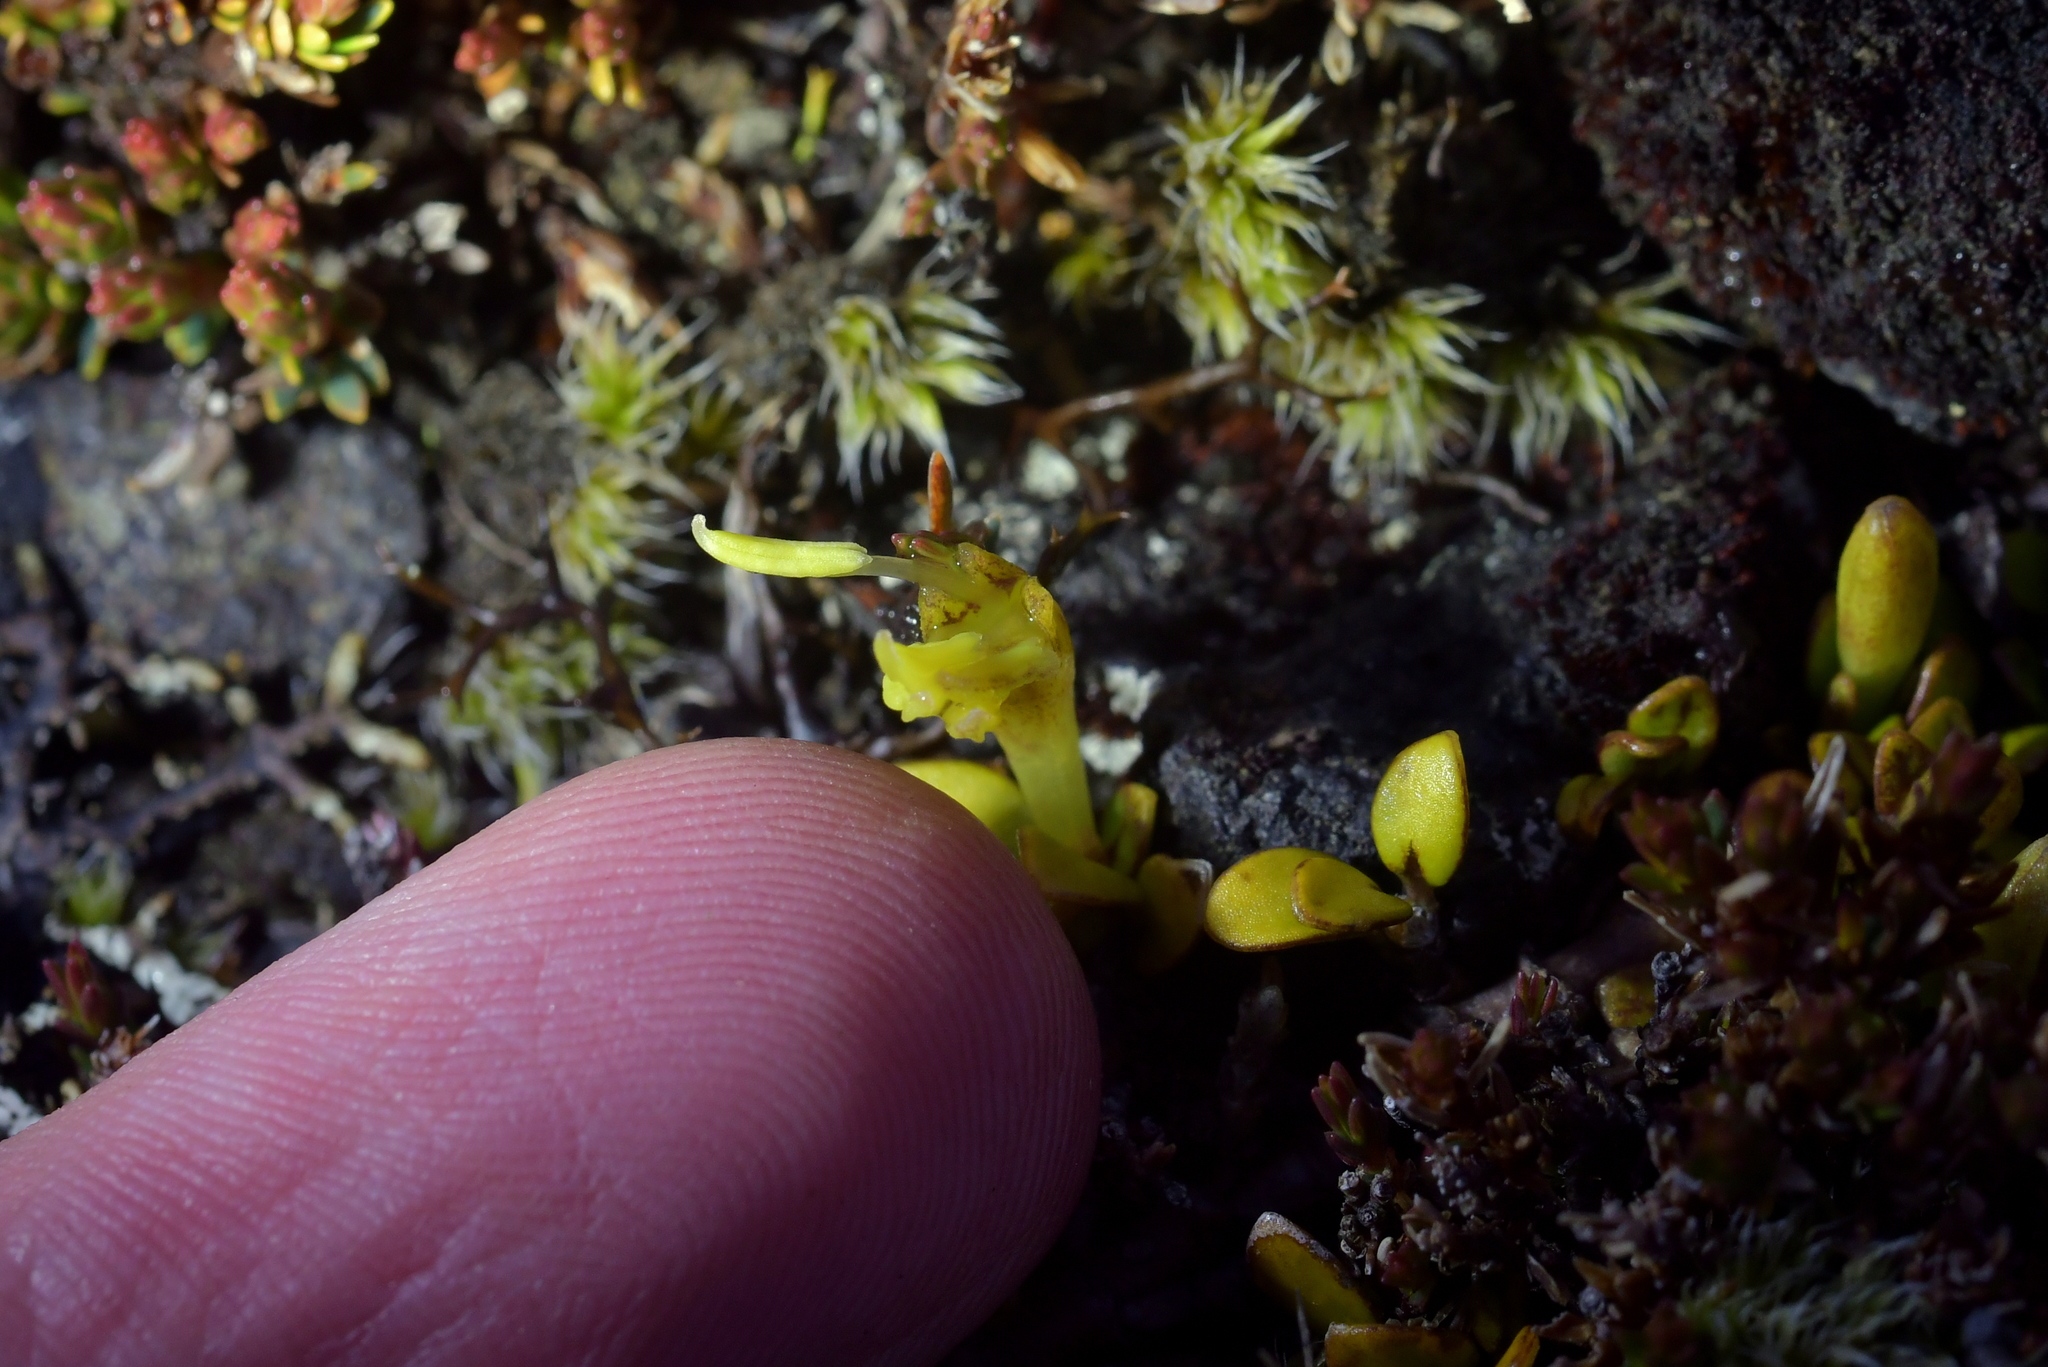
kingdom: Plantae
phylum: Tracheophyta
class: Magnoliopsida
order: Gentianales
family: Rubiaceae
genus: Coprosma
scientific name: Coprosma perpusilla
